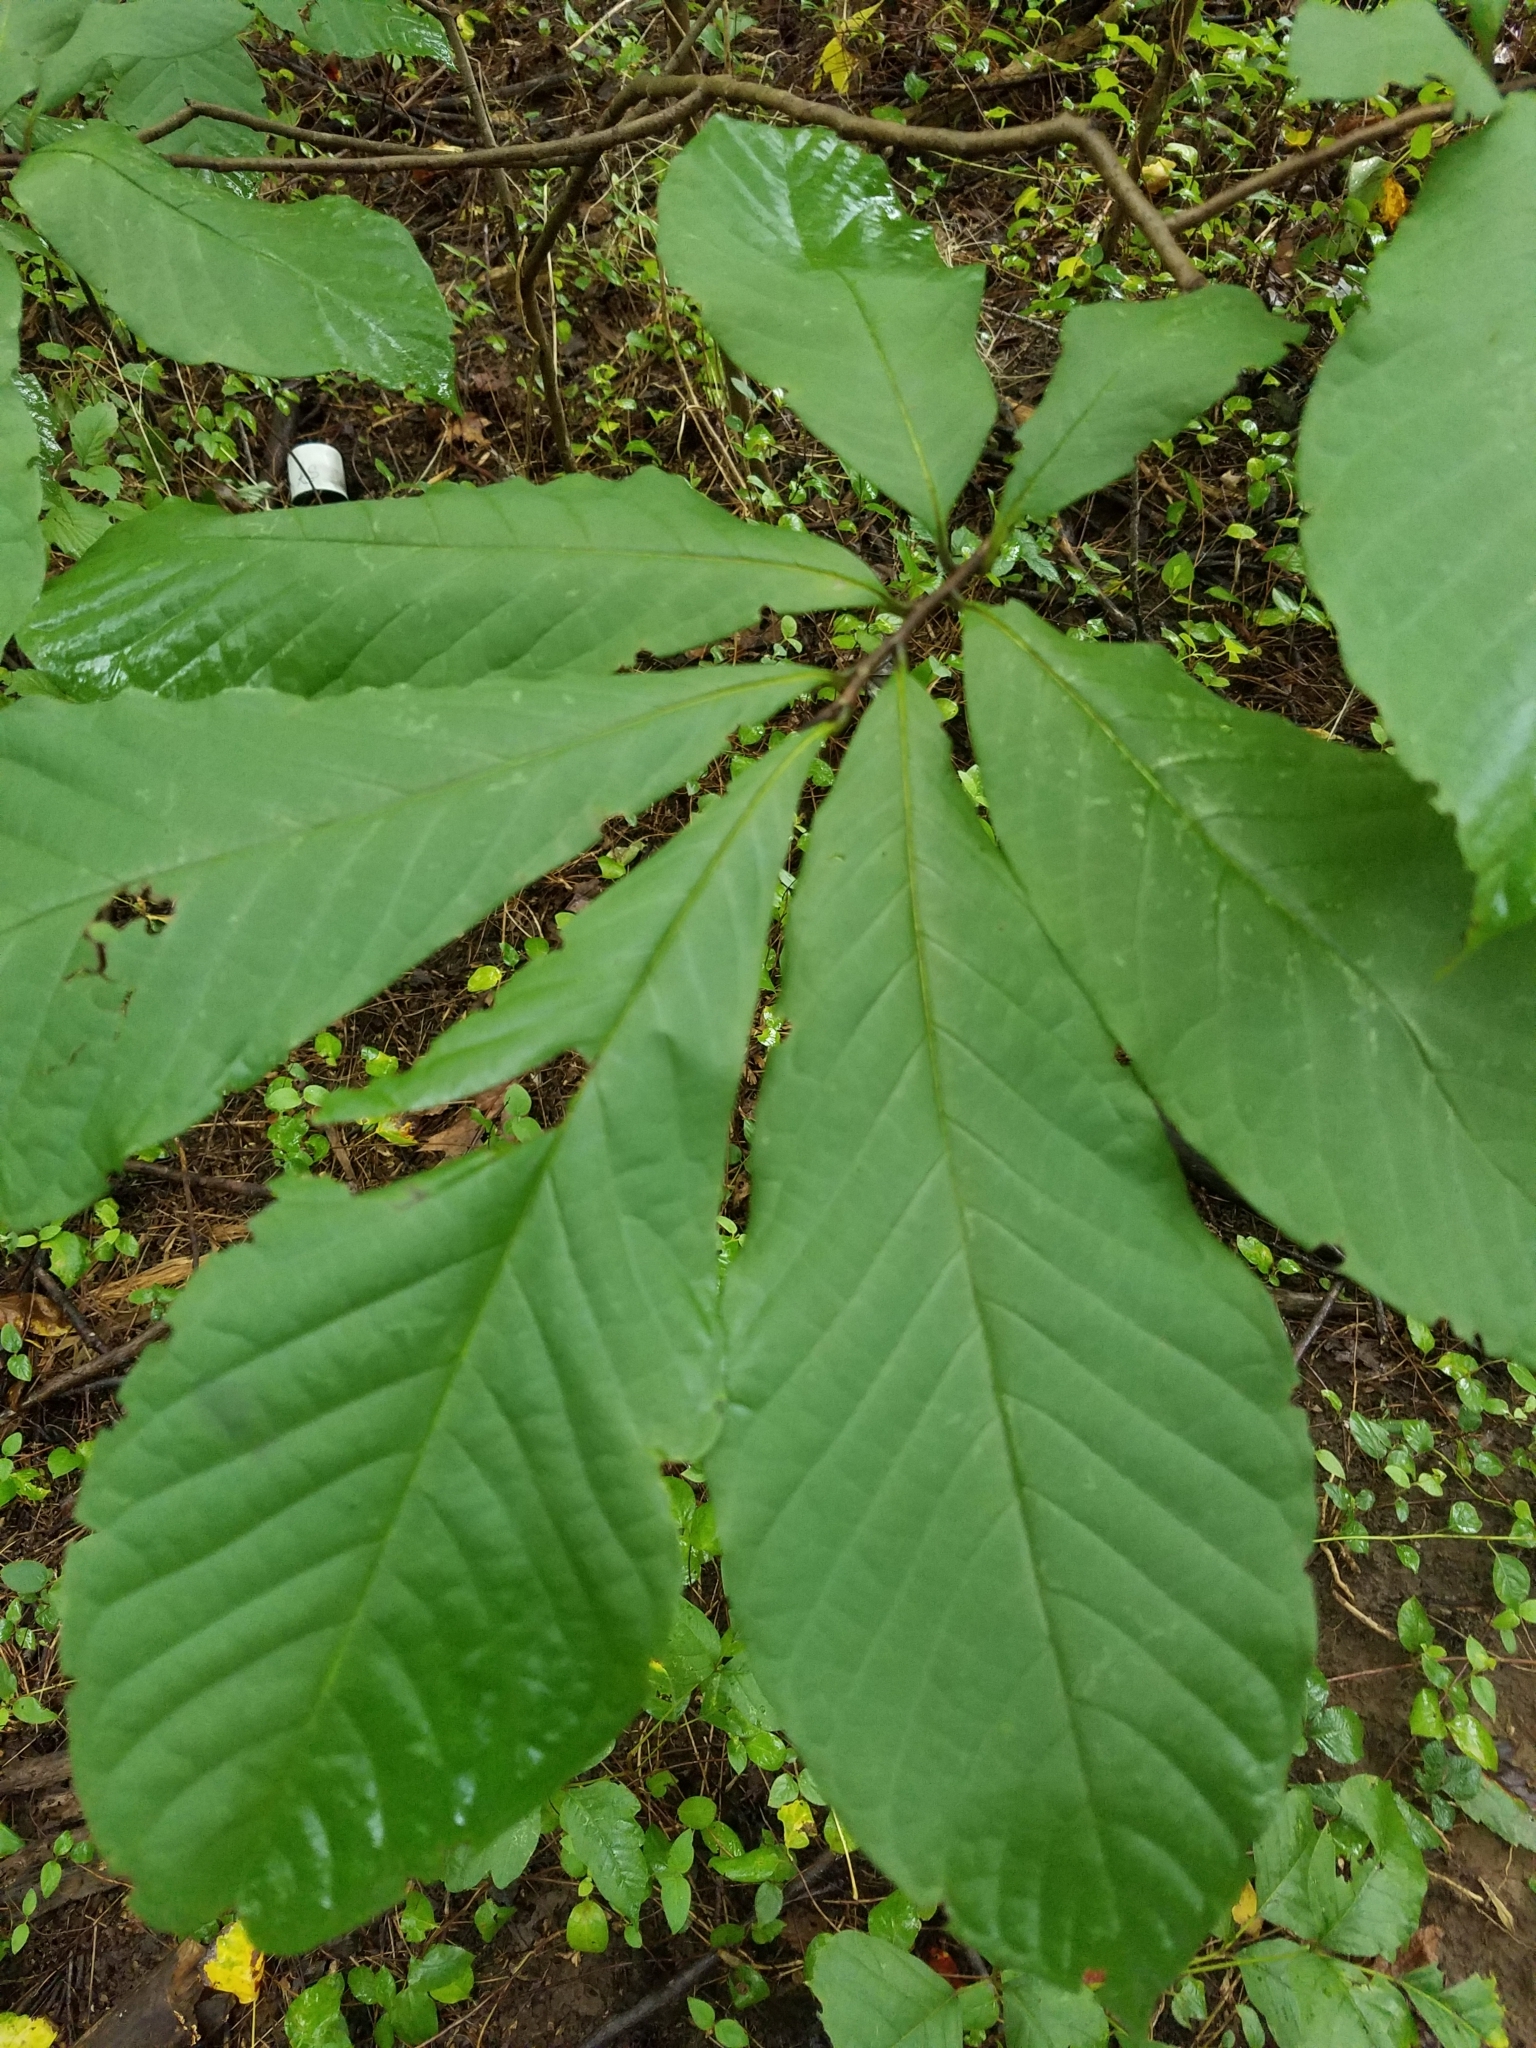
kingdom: Plantae
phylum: Tracheophyta
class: Magnoliopsida
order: Magnoliales
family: Annonaceae
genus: Asimina
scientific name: Asimina triloba
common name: Dog-banana
